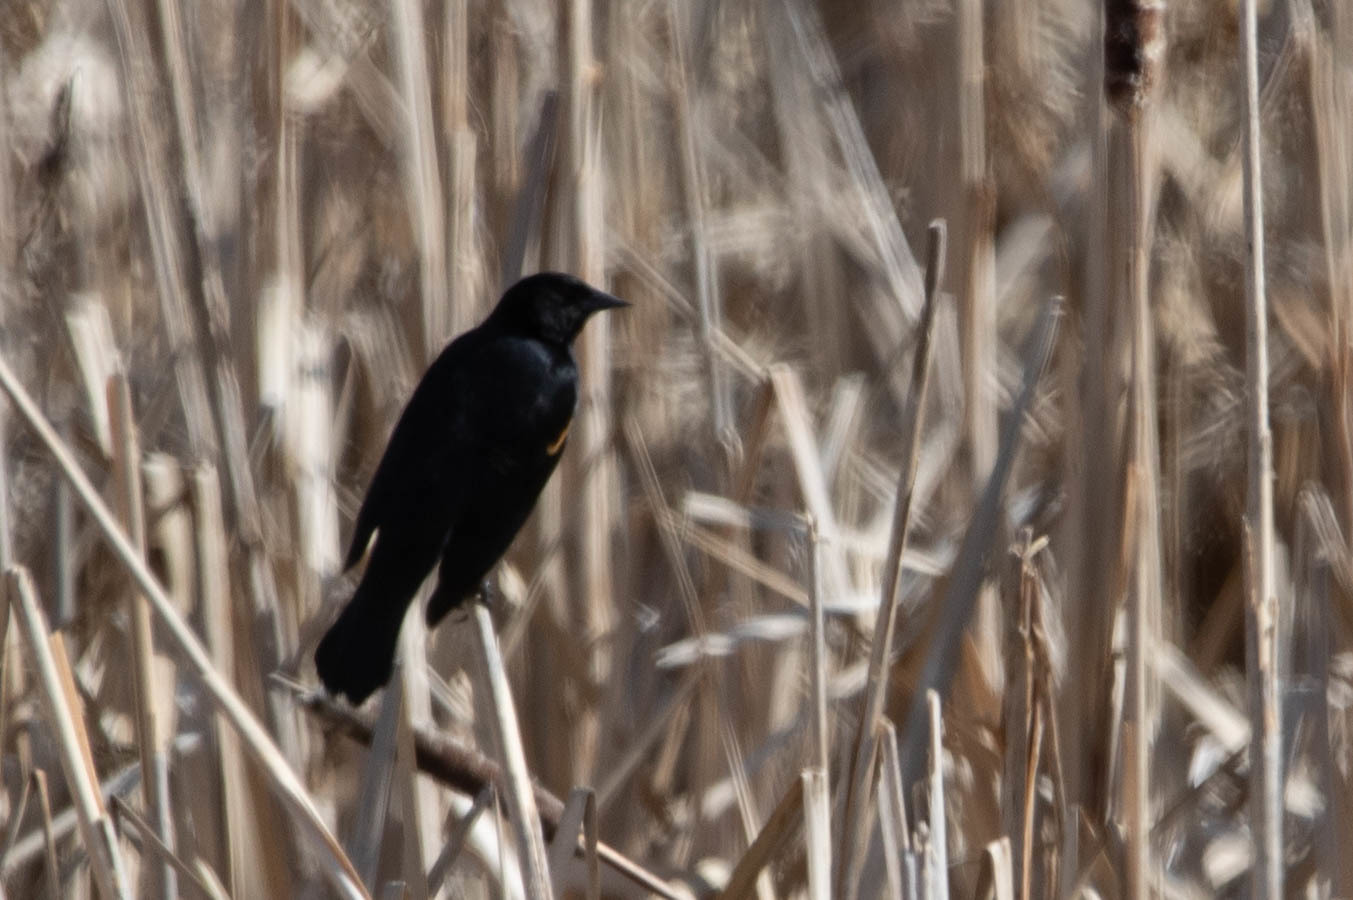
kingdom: Animalia
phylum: Chordata
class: Aves
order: Passeriformes
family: Icteridae
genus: Agelaius
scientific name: Agelaius phoeniceus
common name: Red-winged blackbird
